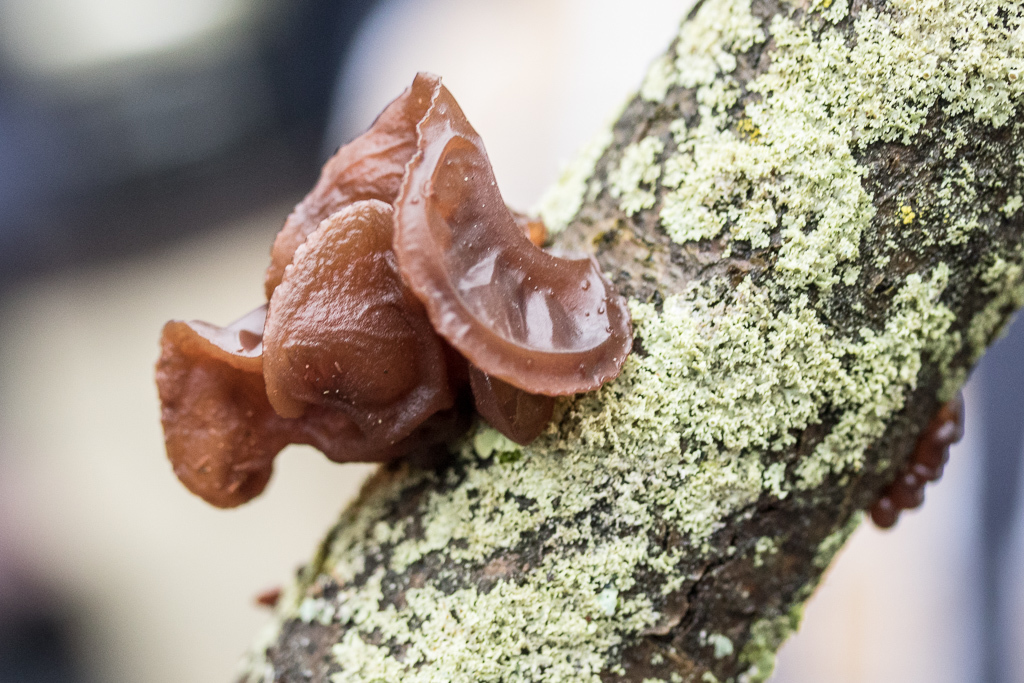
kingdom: Fungi
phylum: Basidiomycota
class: Agaricomycetes
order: Auriculariales
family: Auriculariaceae
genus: Exidia
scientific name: Exidia
